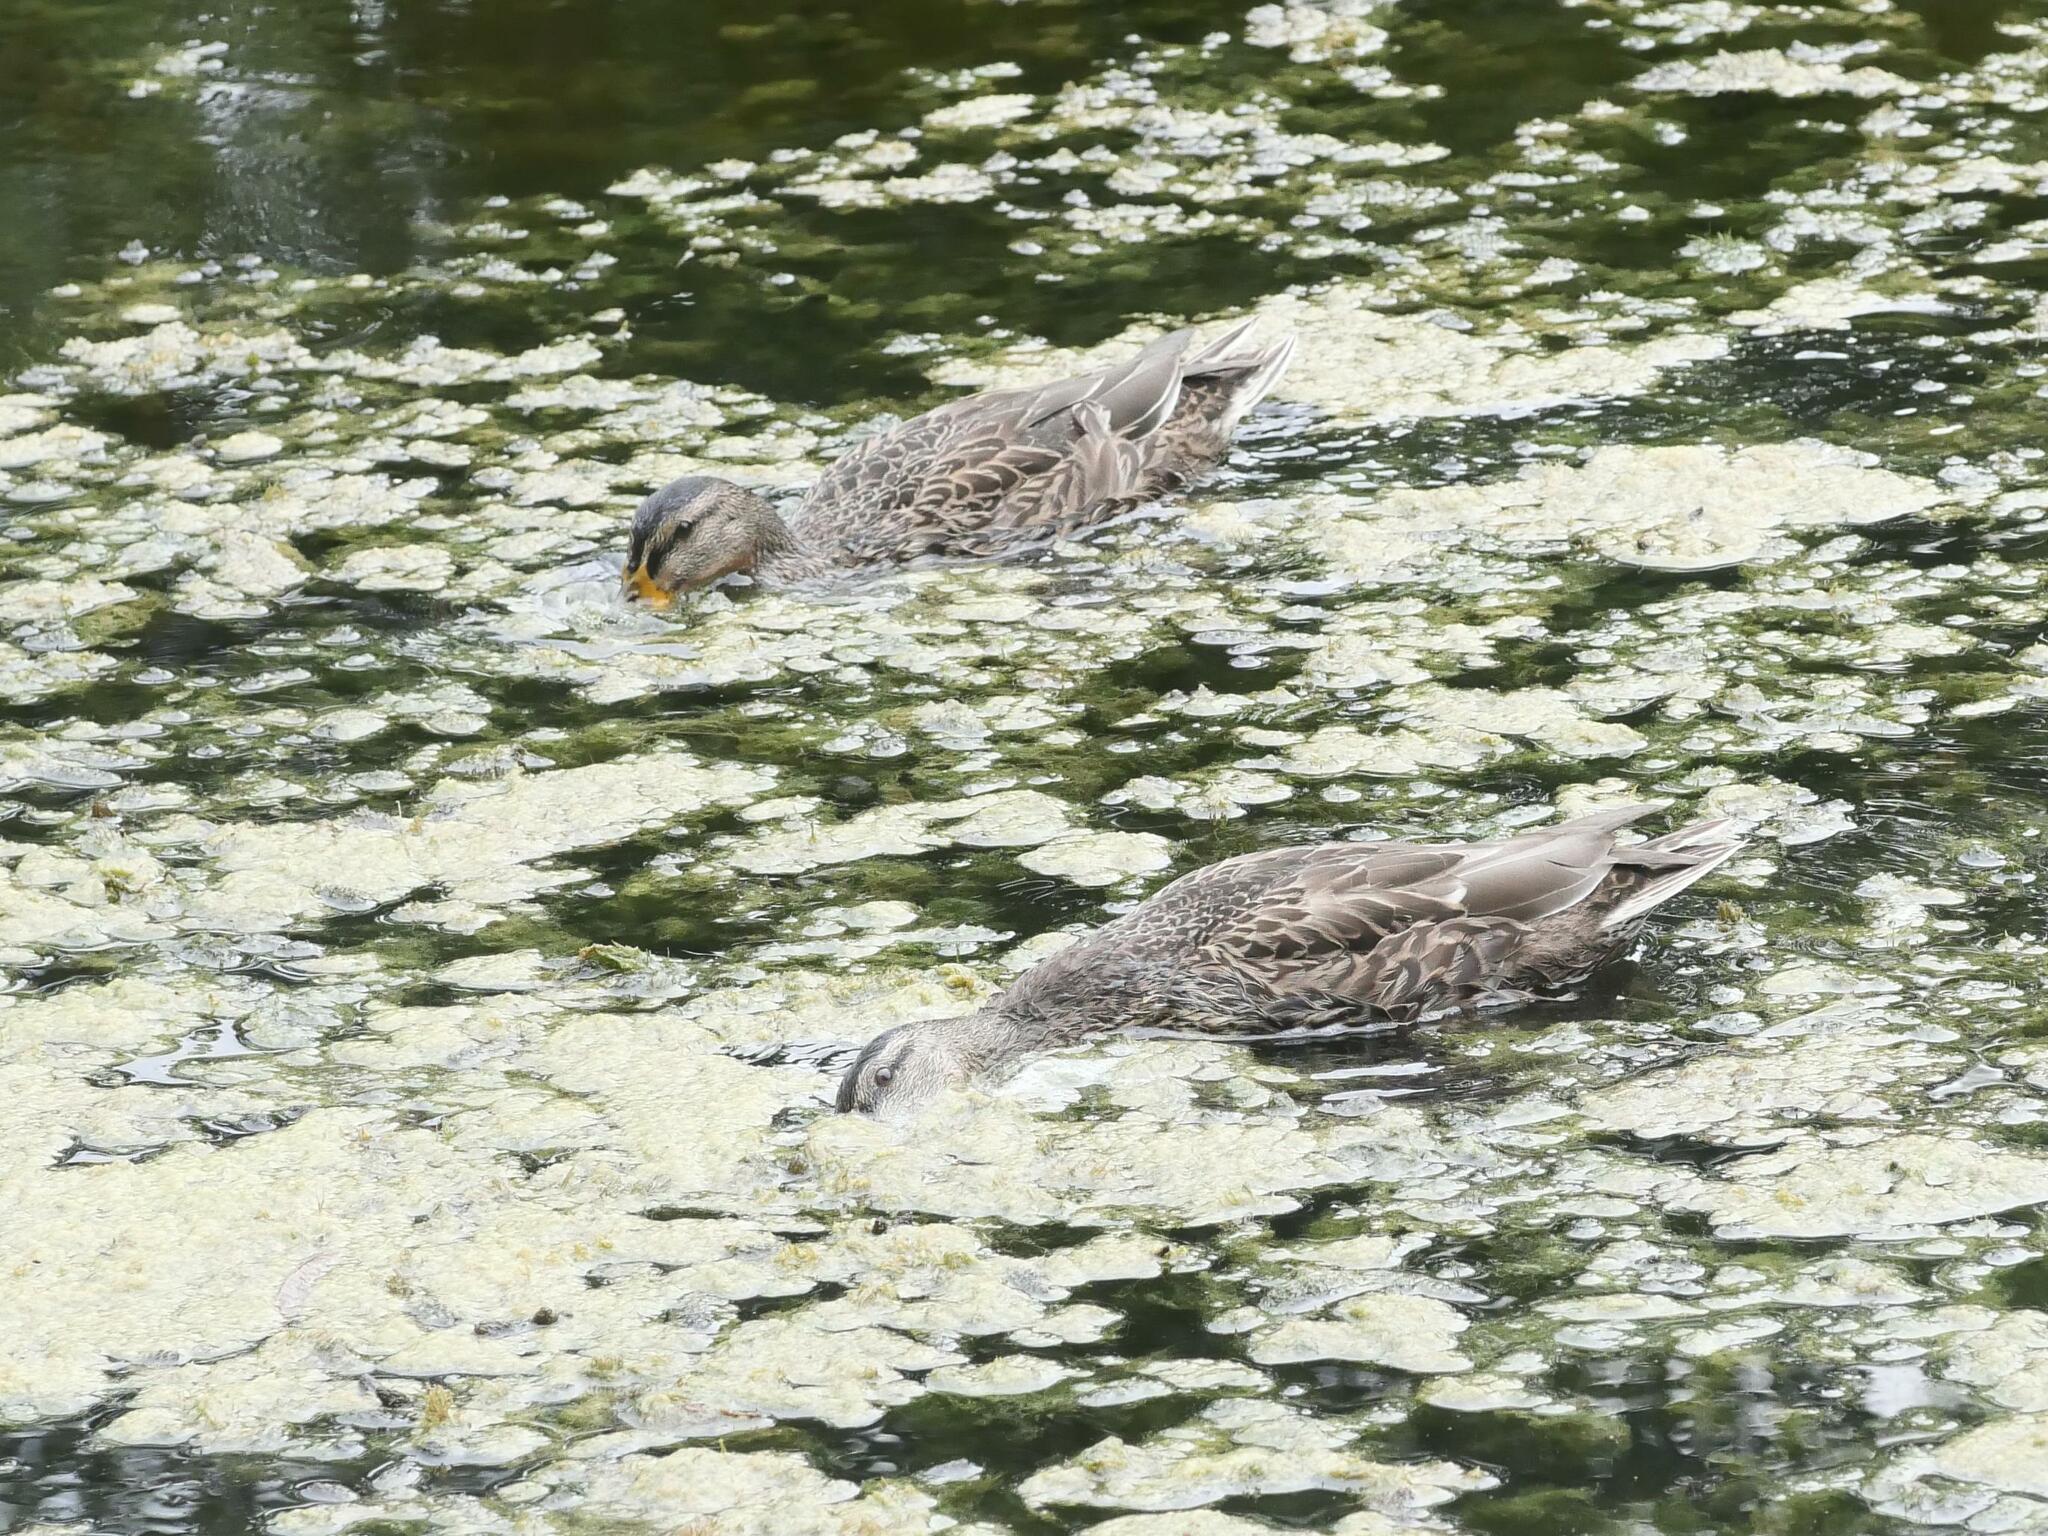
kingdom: Animalia
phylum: Chordata
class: Aves
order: Anseriformes
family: Anatidae
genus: Anas
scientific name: Anas platyrhynchos
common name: Mallard
